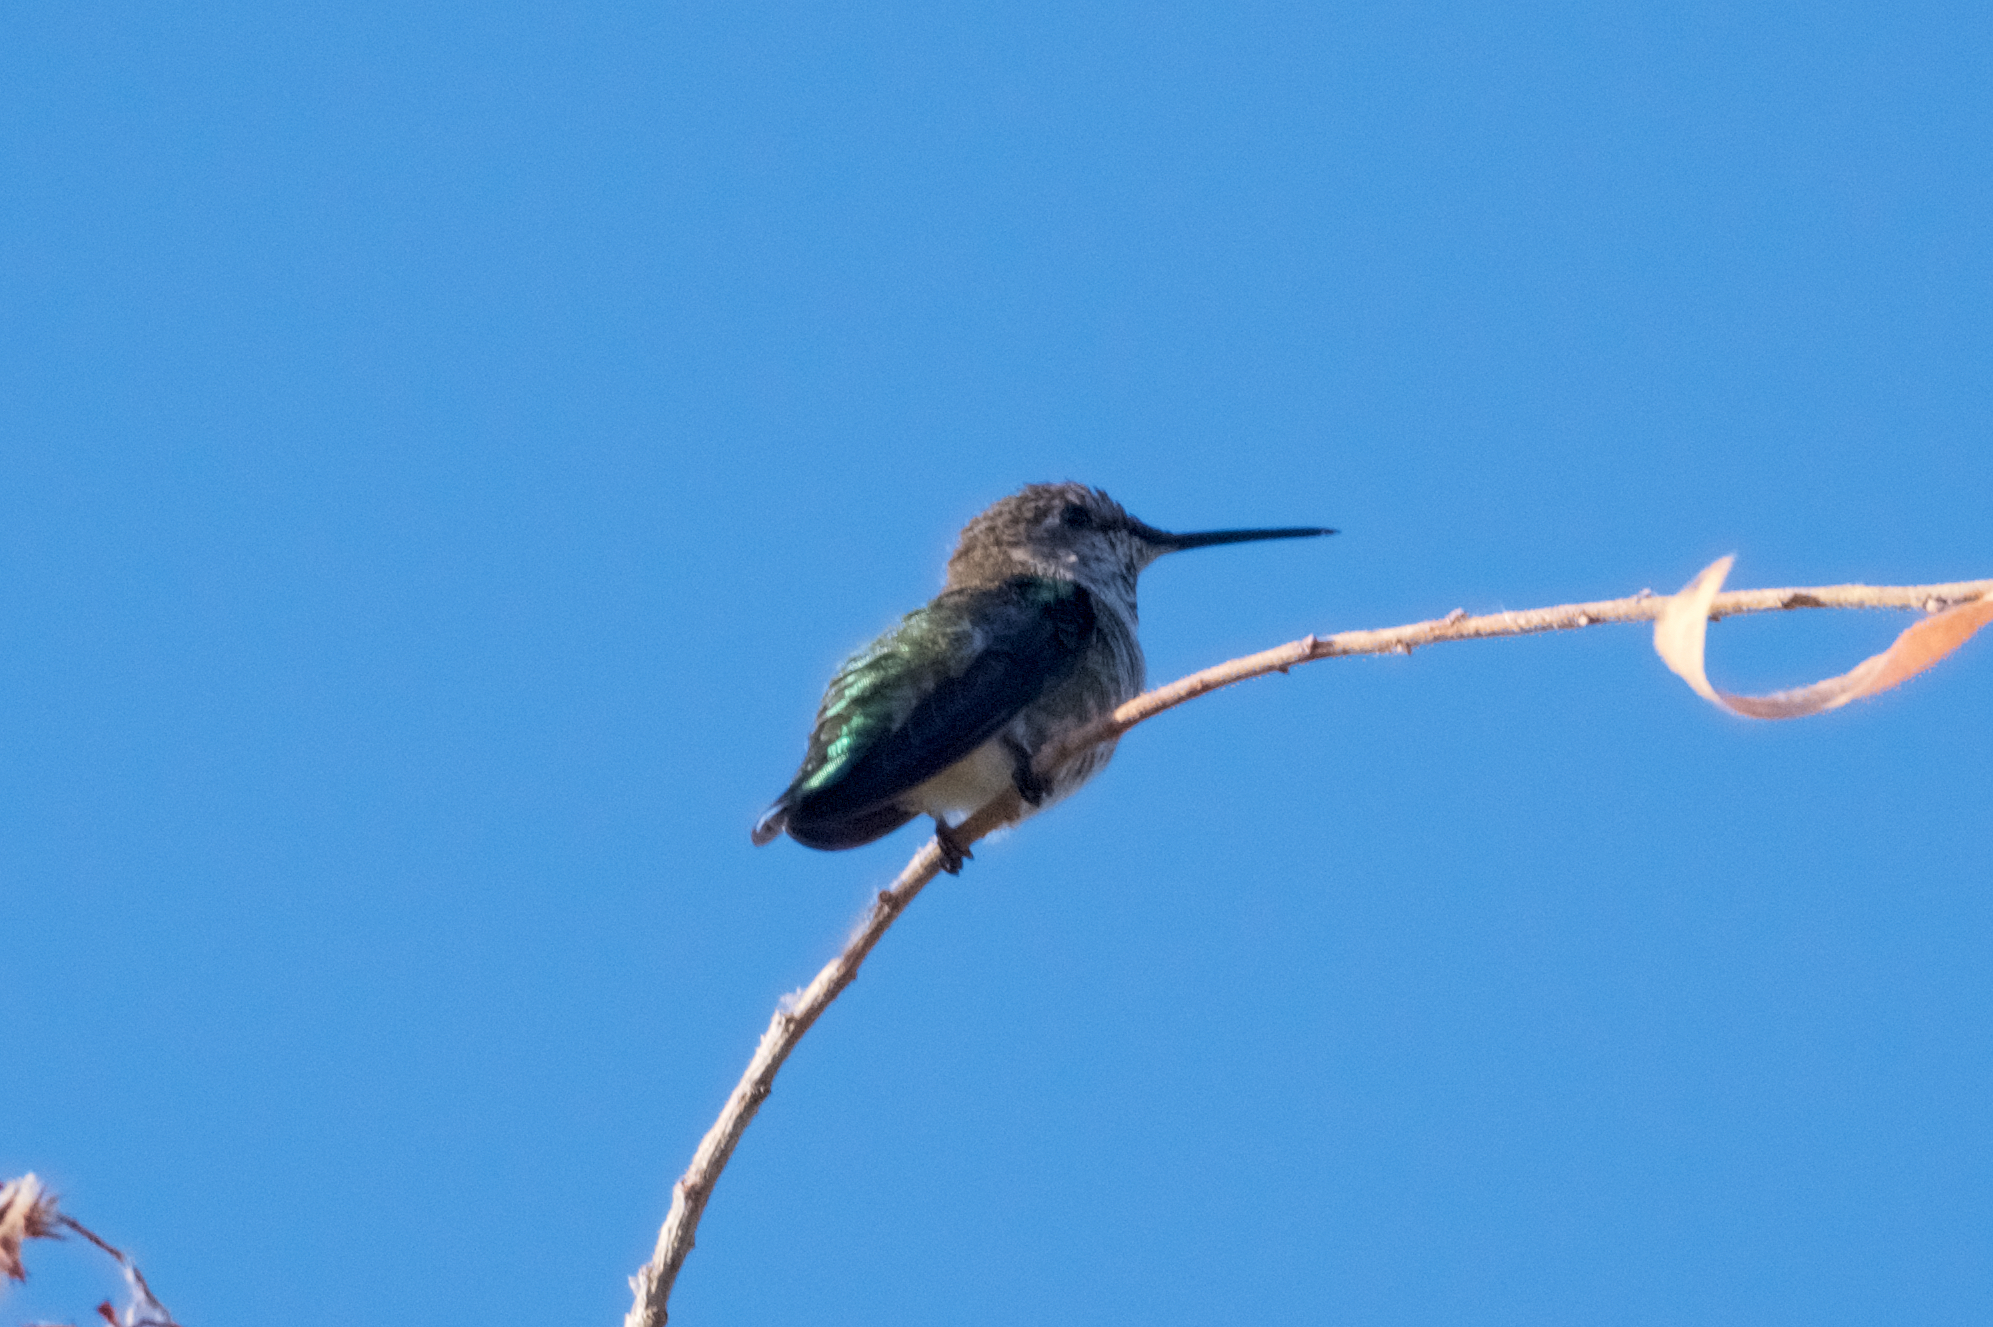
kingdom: Animalia
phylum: Chordata
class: Aves
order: Apodiformes
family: Trochilidae
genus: Calypte
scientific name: Calypte anna
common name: Anna's hummingbird
